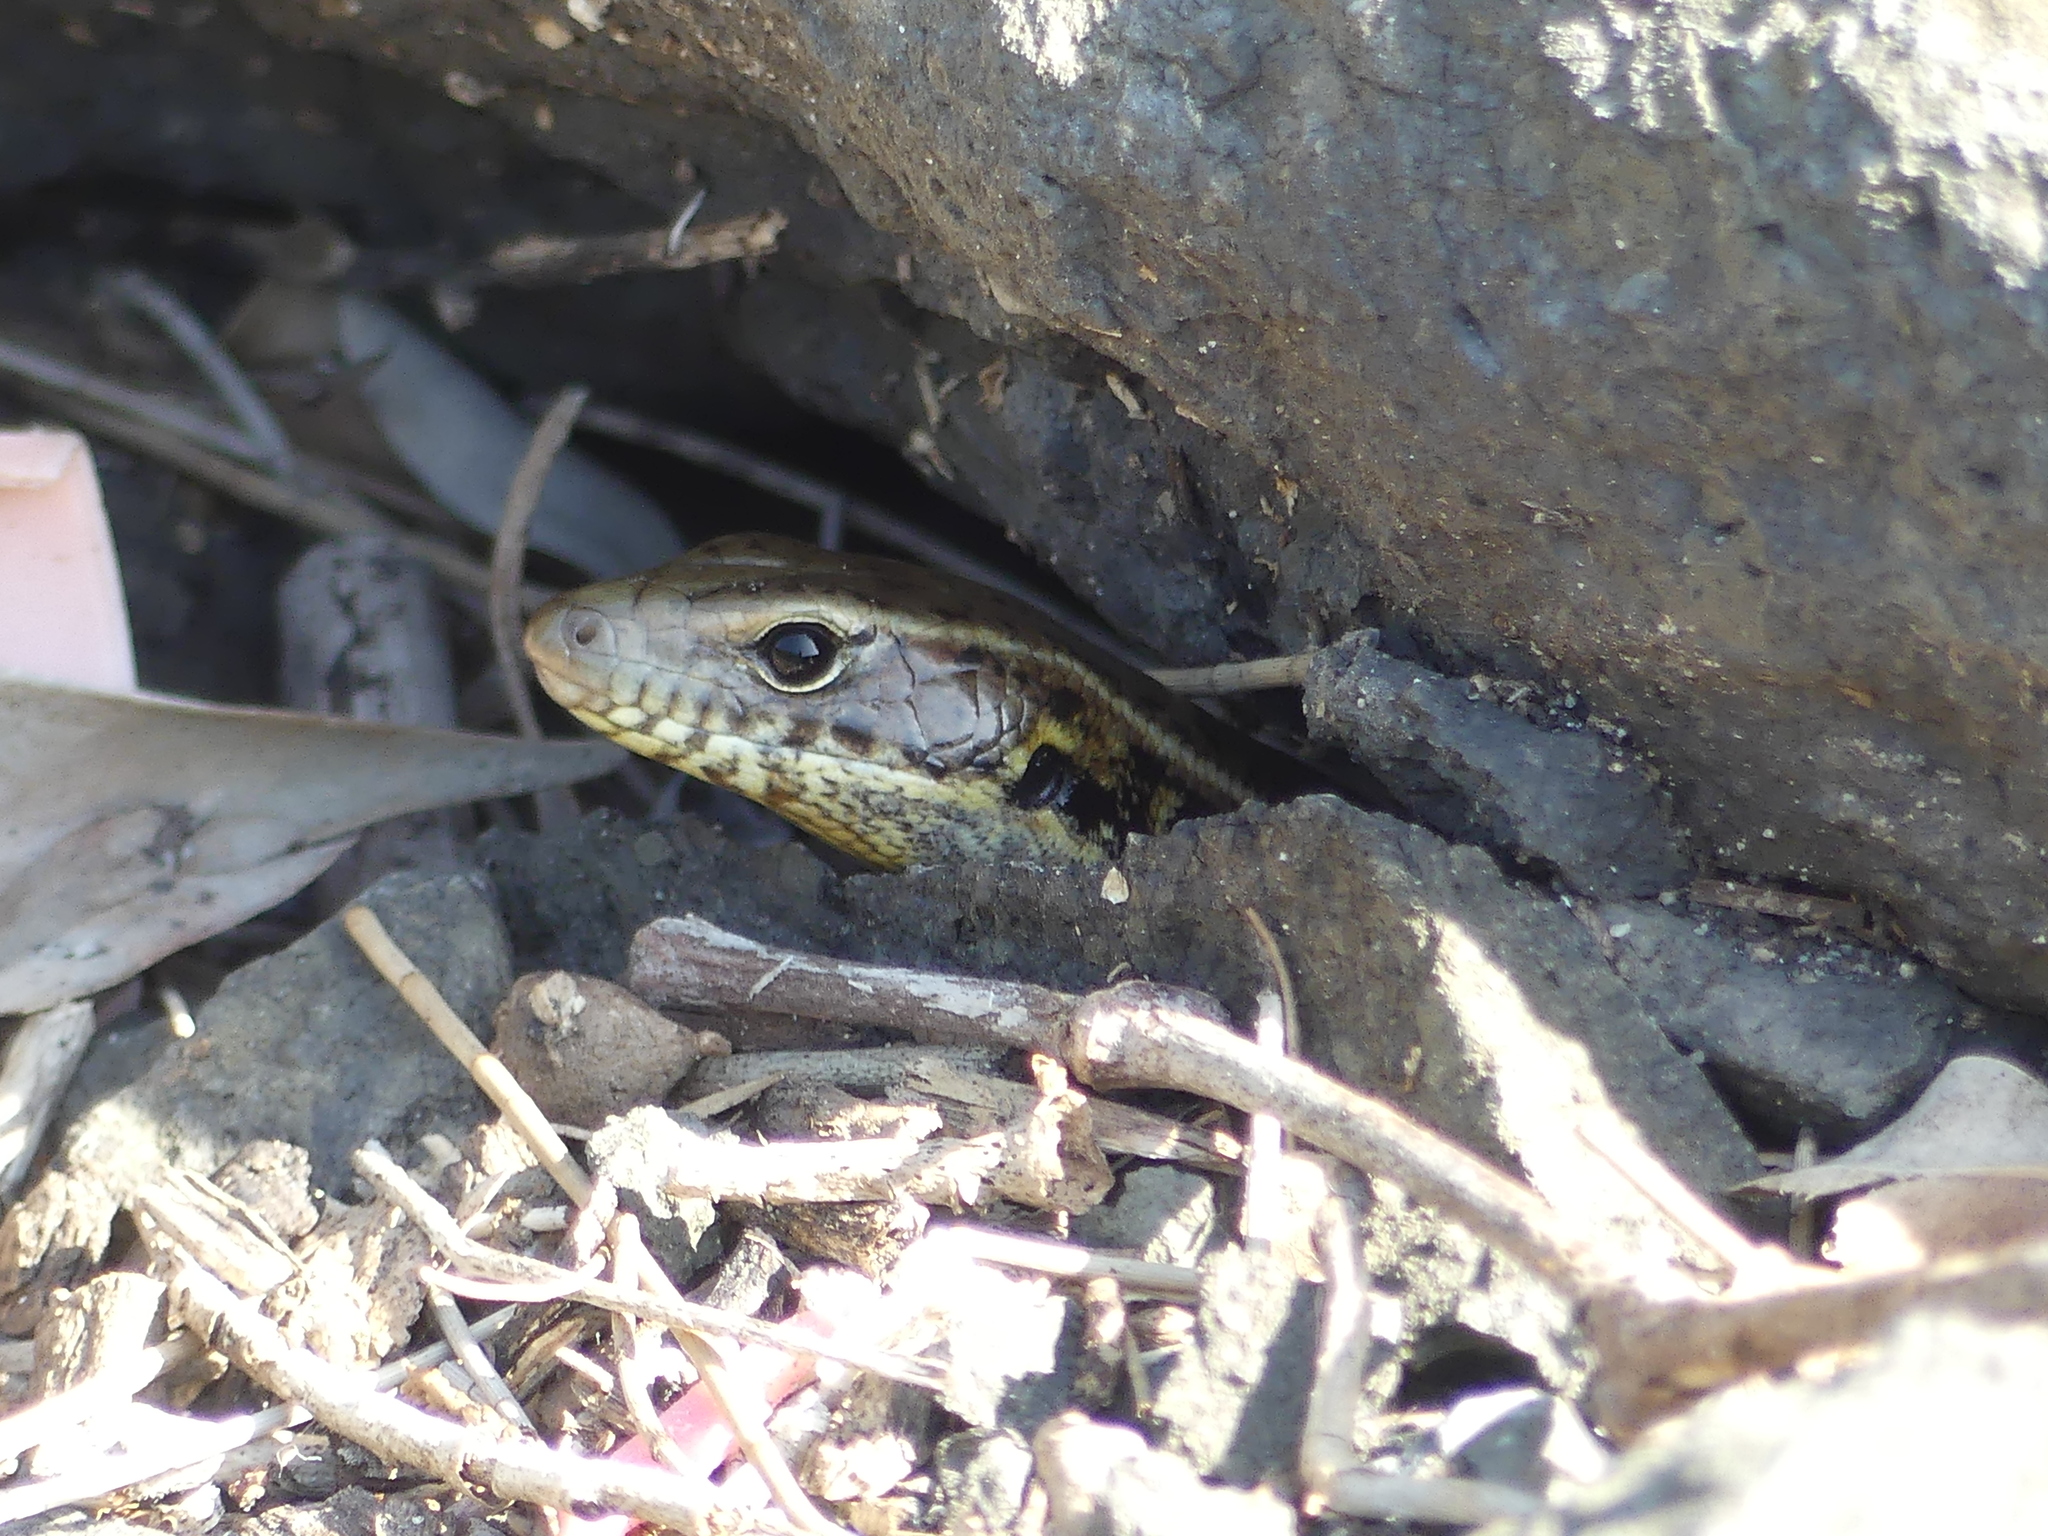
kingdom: Animalia
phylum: Chordata
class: Squamata
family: Scincidae
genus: Eulamprus
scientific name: Eulamprus quoyii
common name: Eastern water skink
